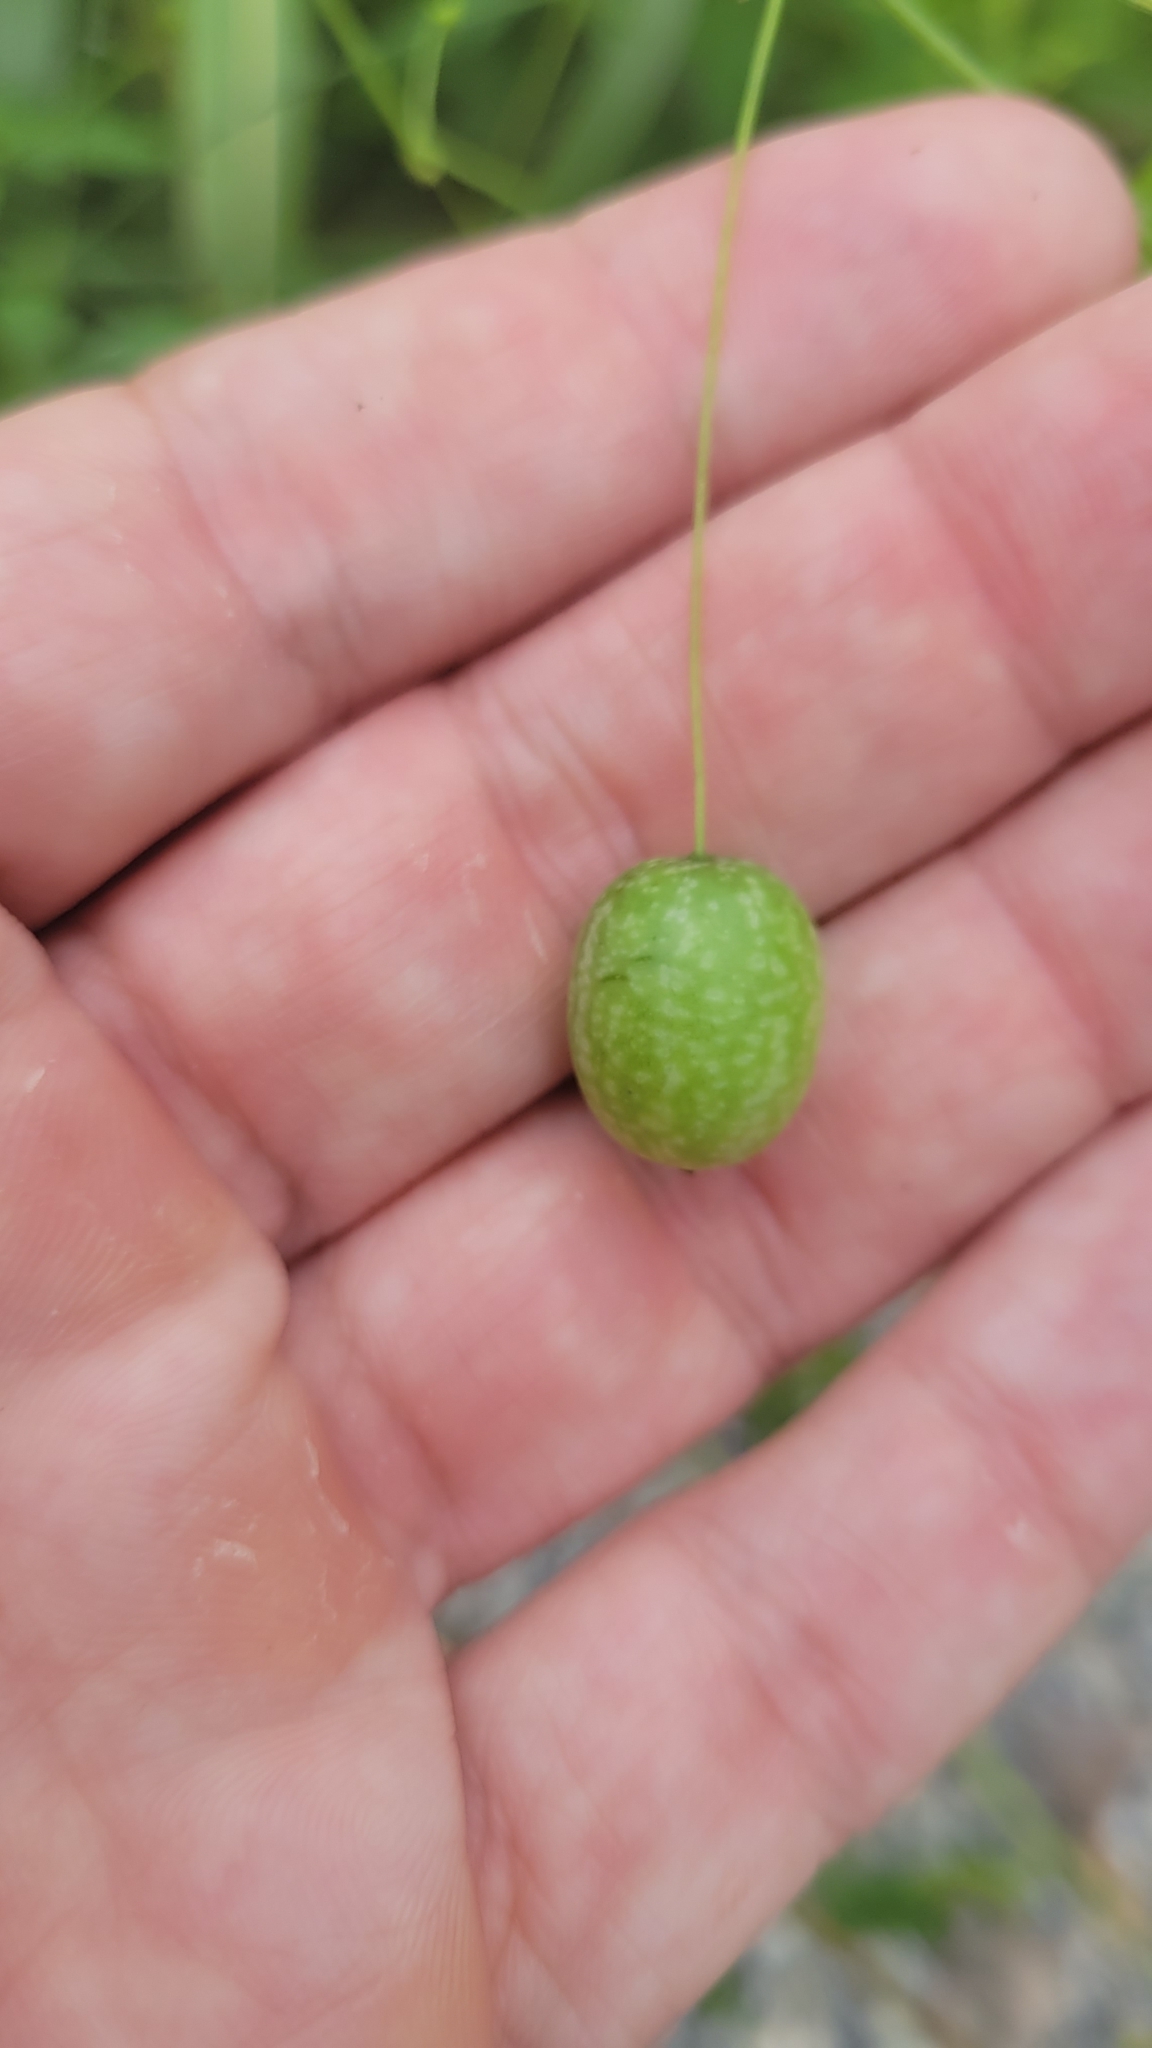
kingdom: Plantae
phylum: Tracheophyta
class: Magnoliopsida
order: Cucurbitales
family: Cucurbitaceae
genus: Melothria
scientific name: Melothria pendula
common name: Creeping-cucumber
